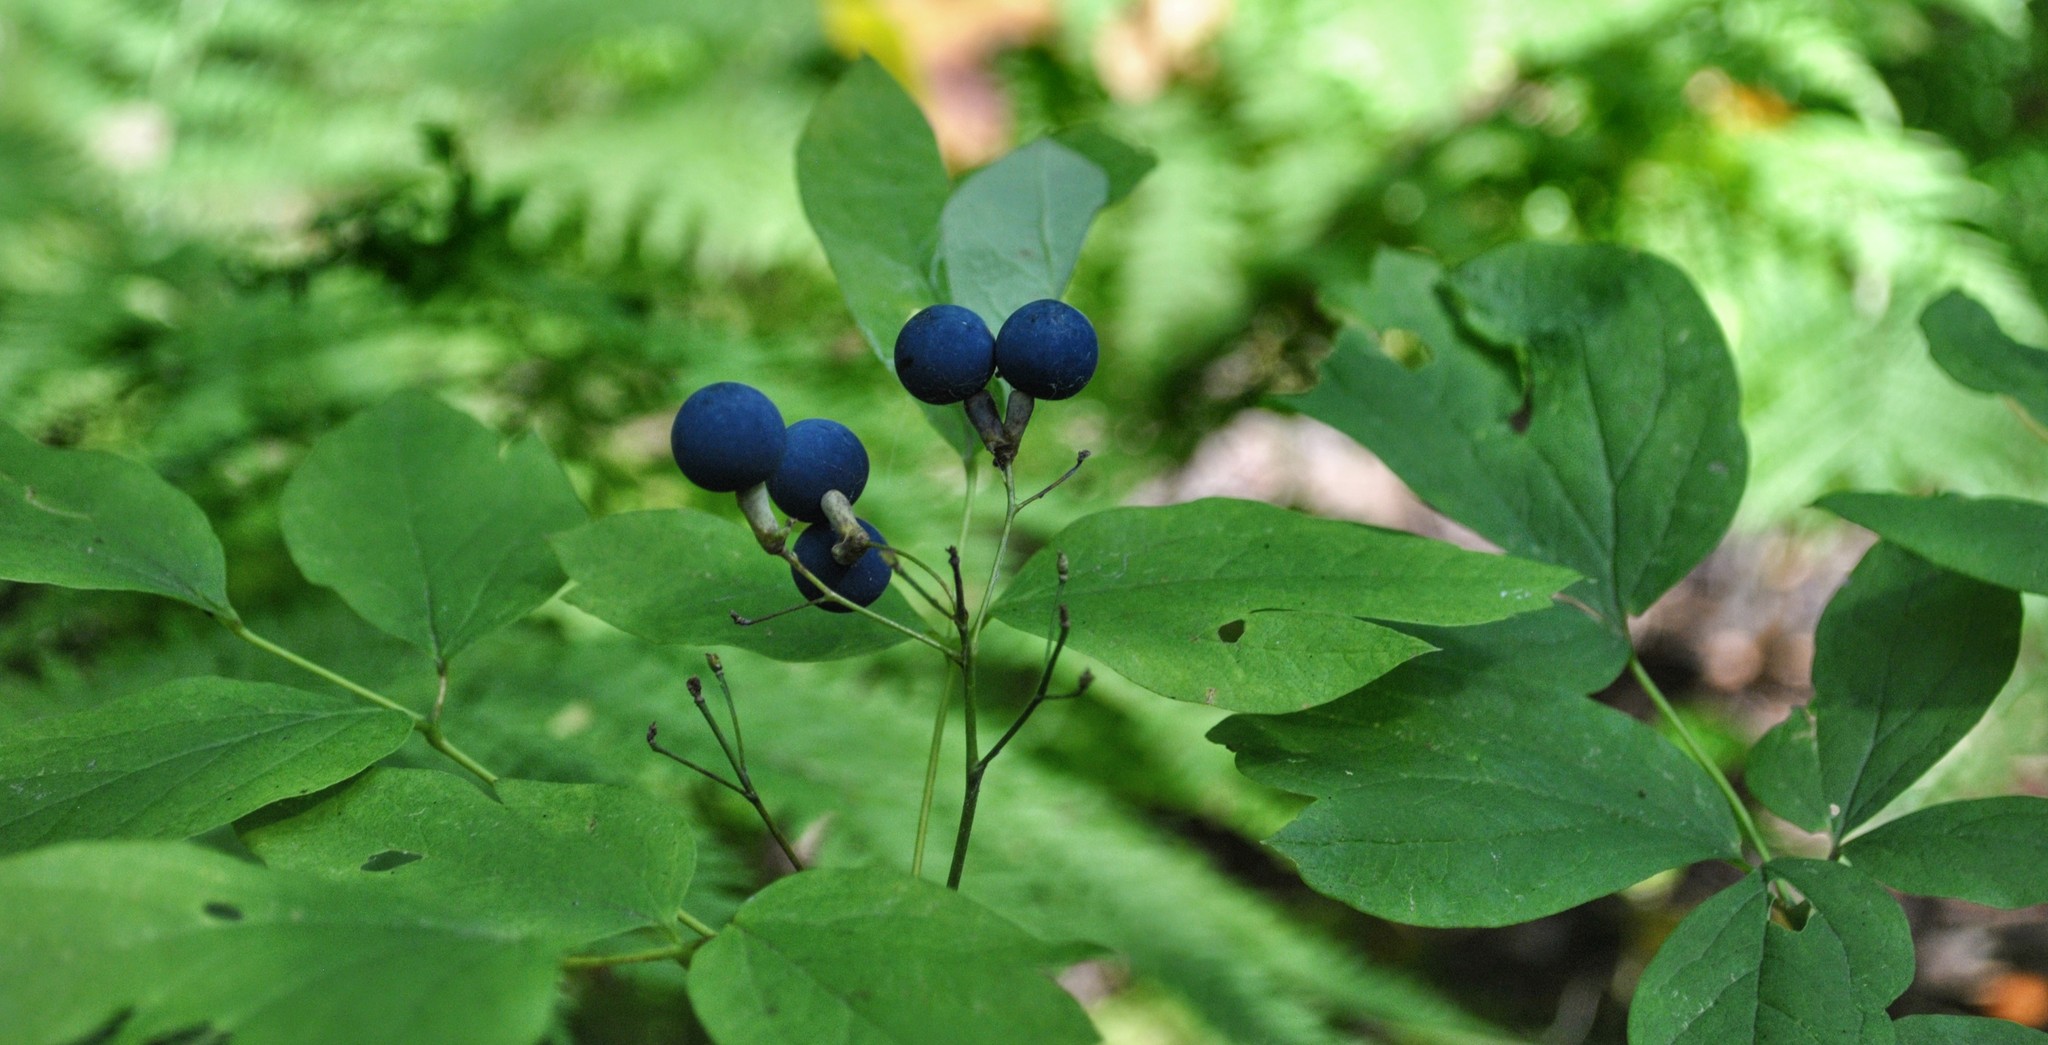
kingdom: Plantae
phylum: Tracheophyta
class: Magnoliopsida
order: Ranunculales
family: Berberidaceae
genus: Caulophyllum
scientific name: Caulophyllum thalictroides
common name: Blue cohosh
